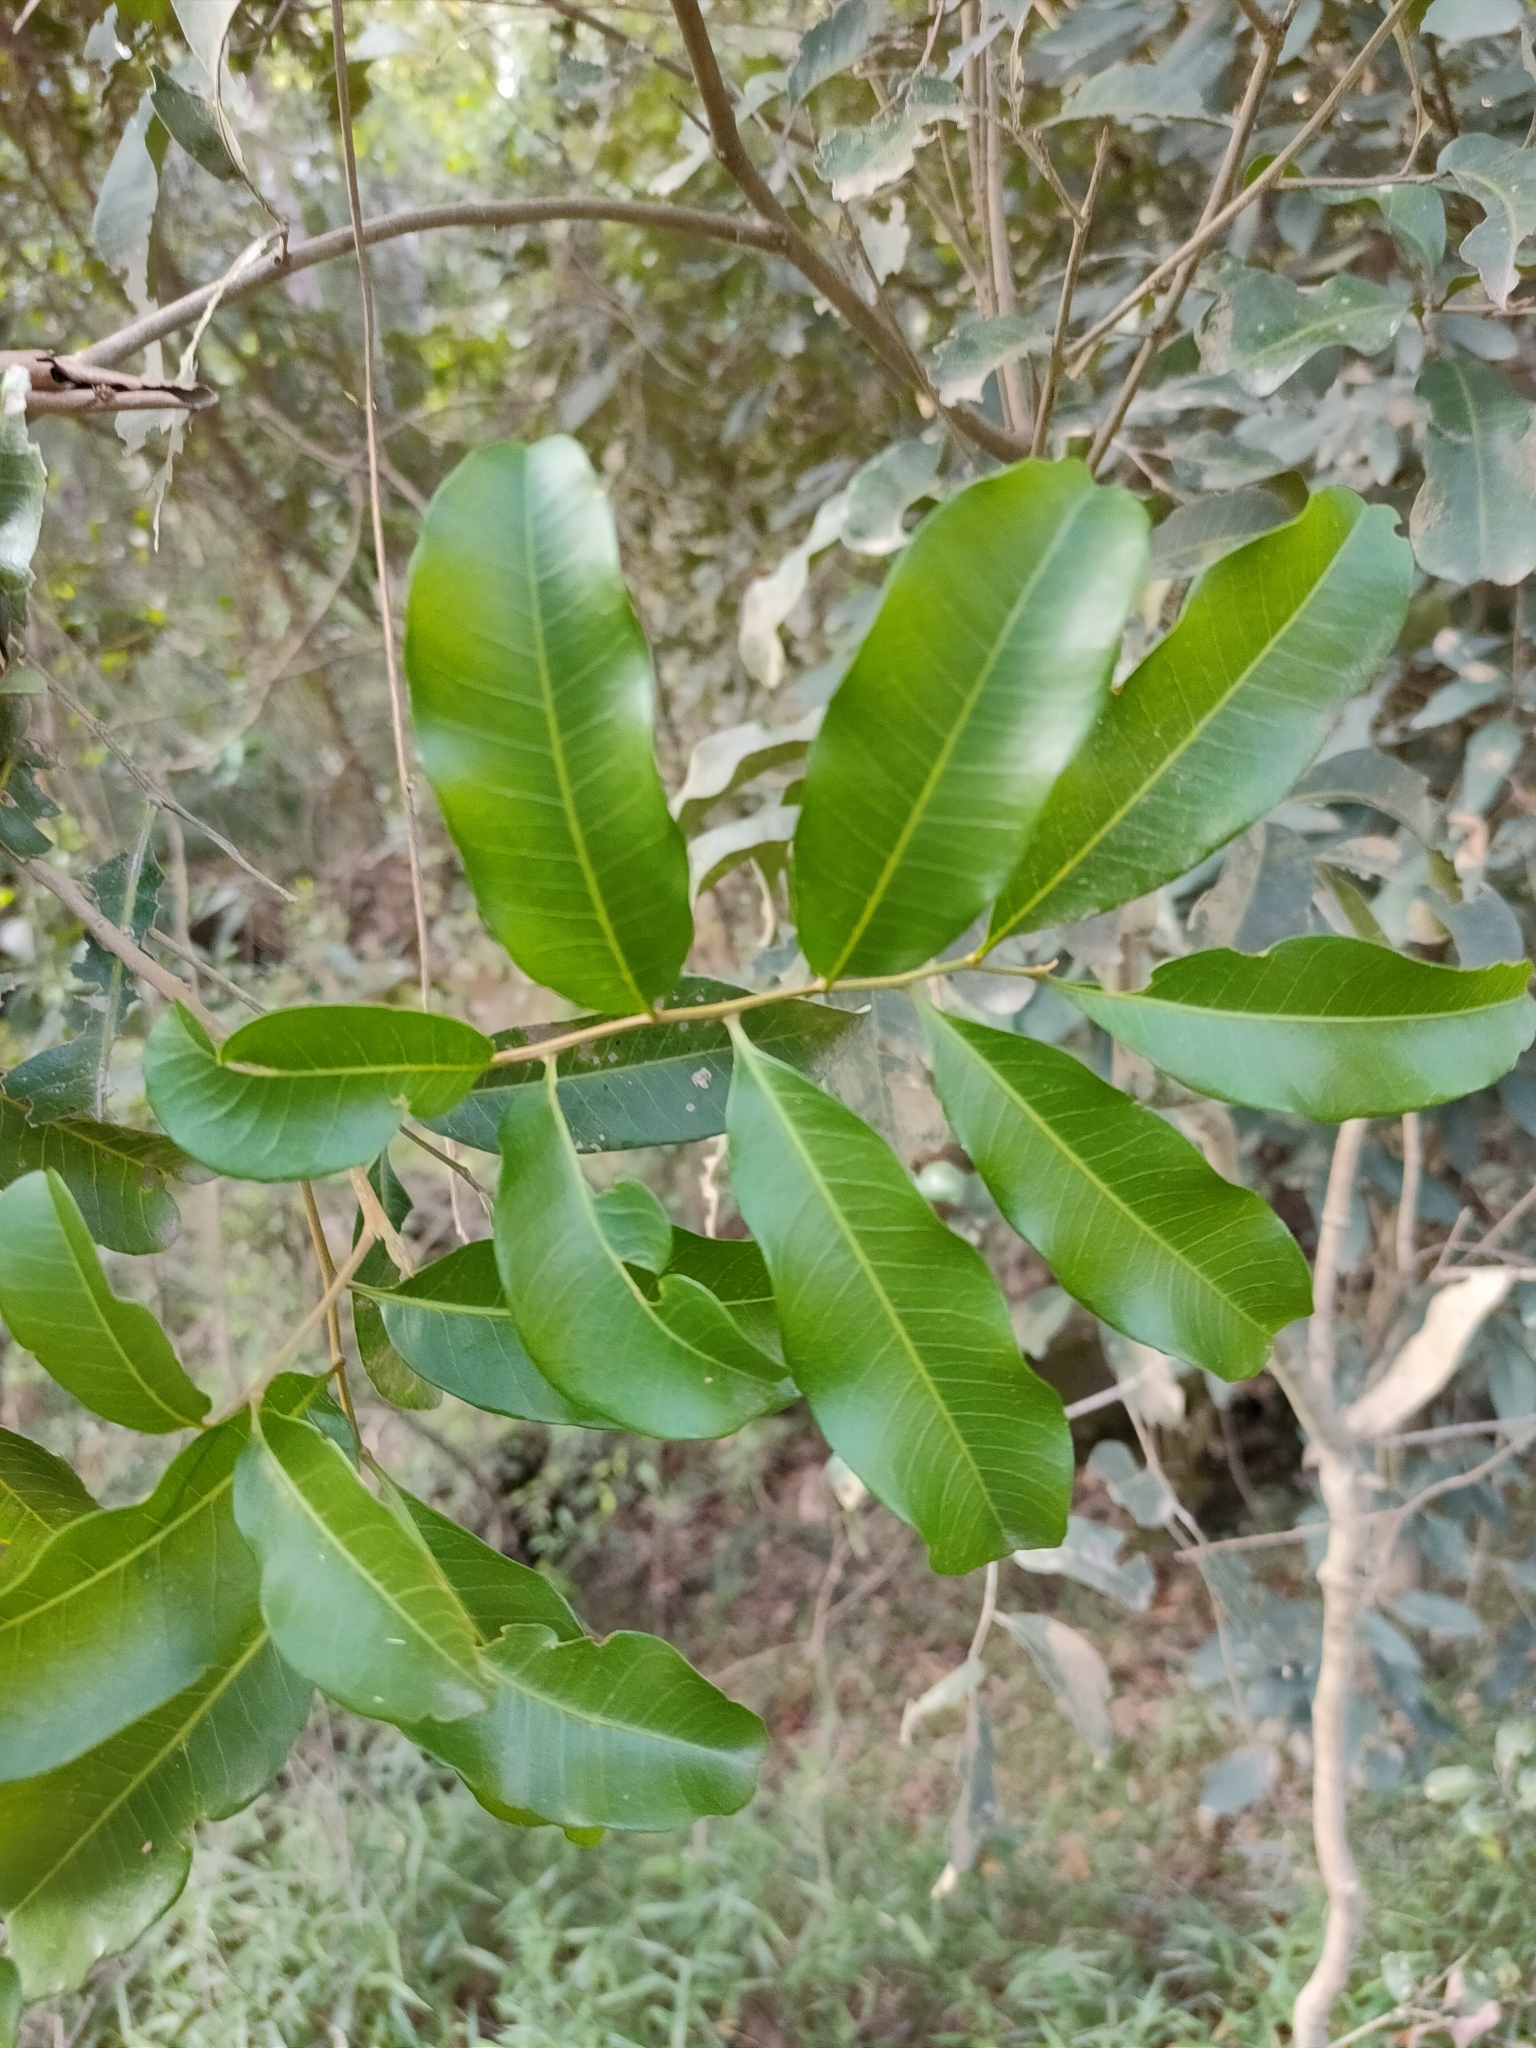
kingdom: Plantae
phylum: Tracheophyta
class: Magnoliopsida
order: Sapindales
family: Sapindaceae
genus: Cupaniopsis
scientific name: Cupaniopsis parvifolia
